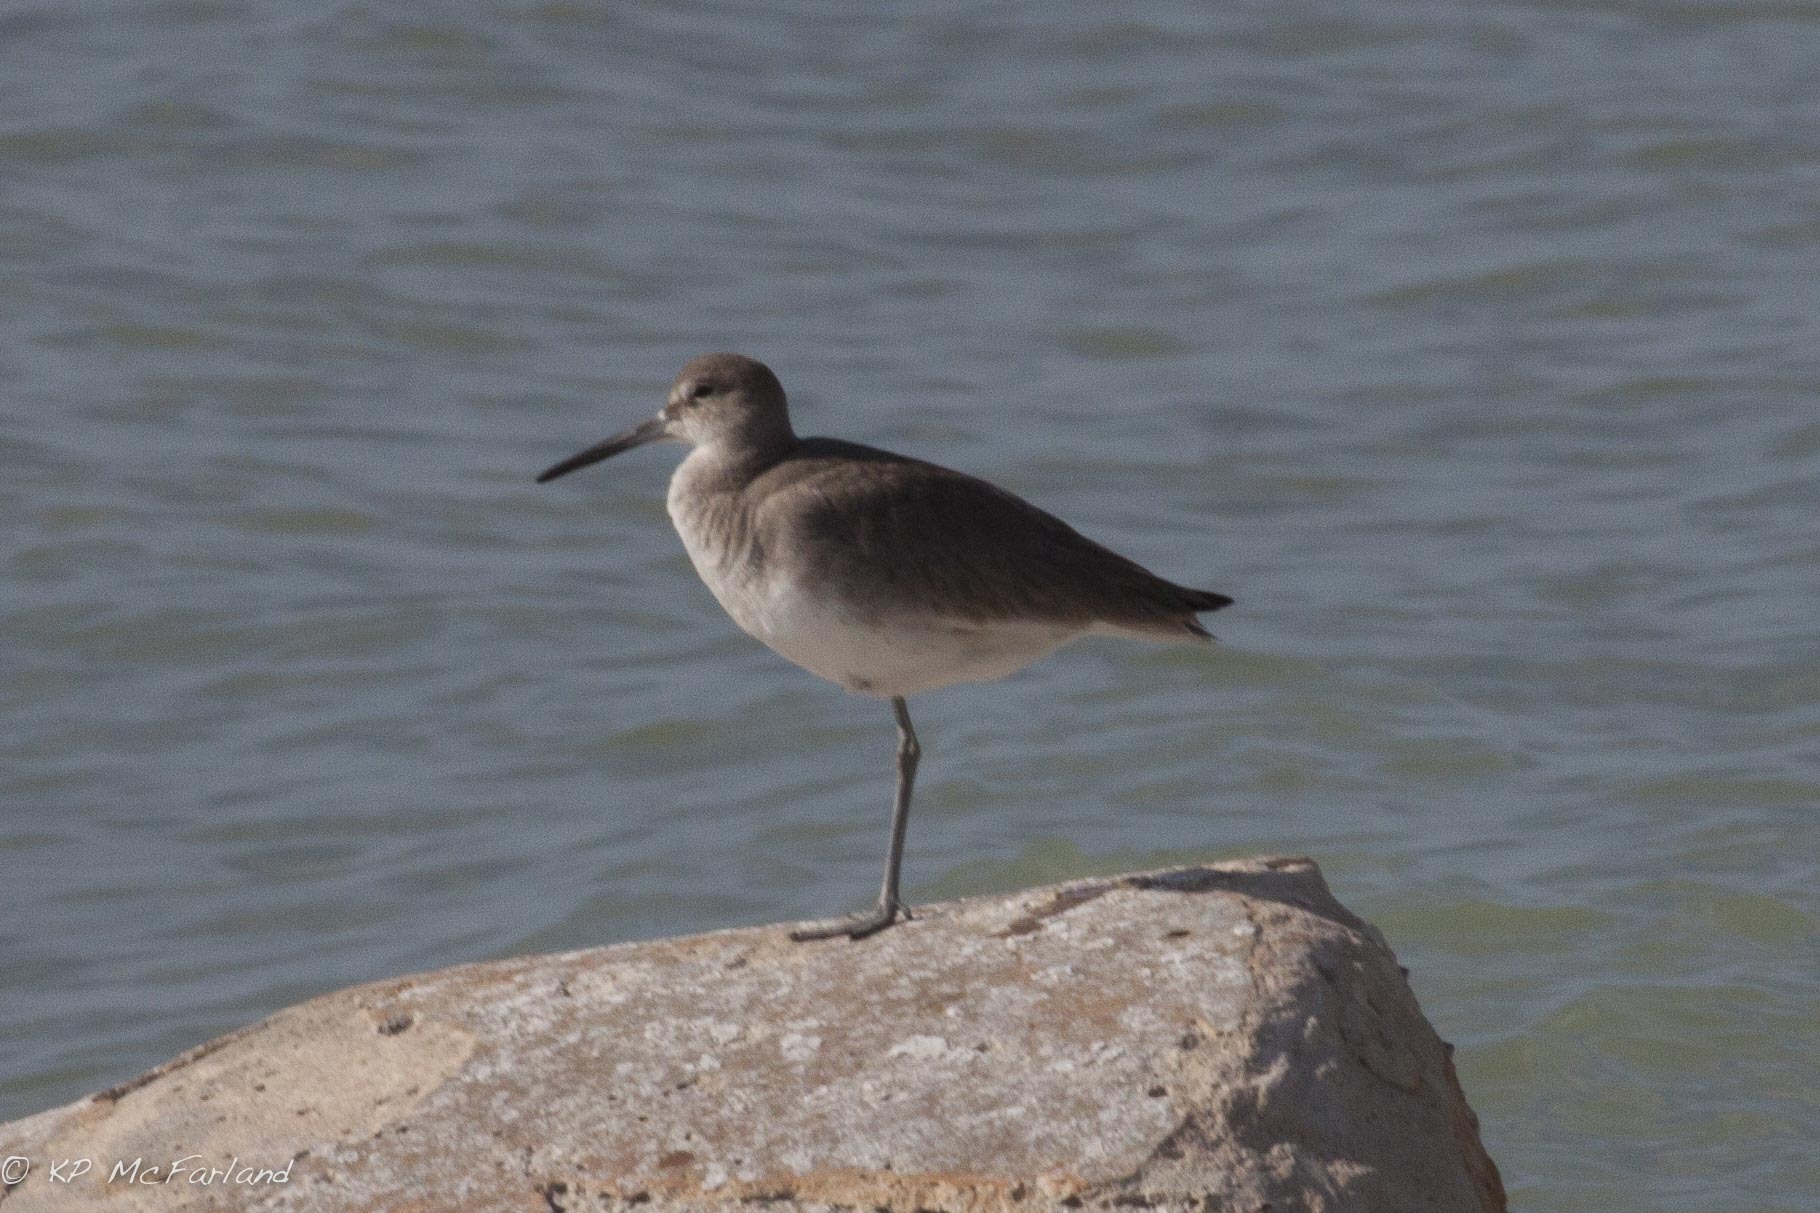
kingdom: Animalia
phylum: Chordata
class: Aves
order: Charadriiformes
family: Scolopacidae
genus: Tringa
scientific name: Tringa semipalmata
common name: Willet
